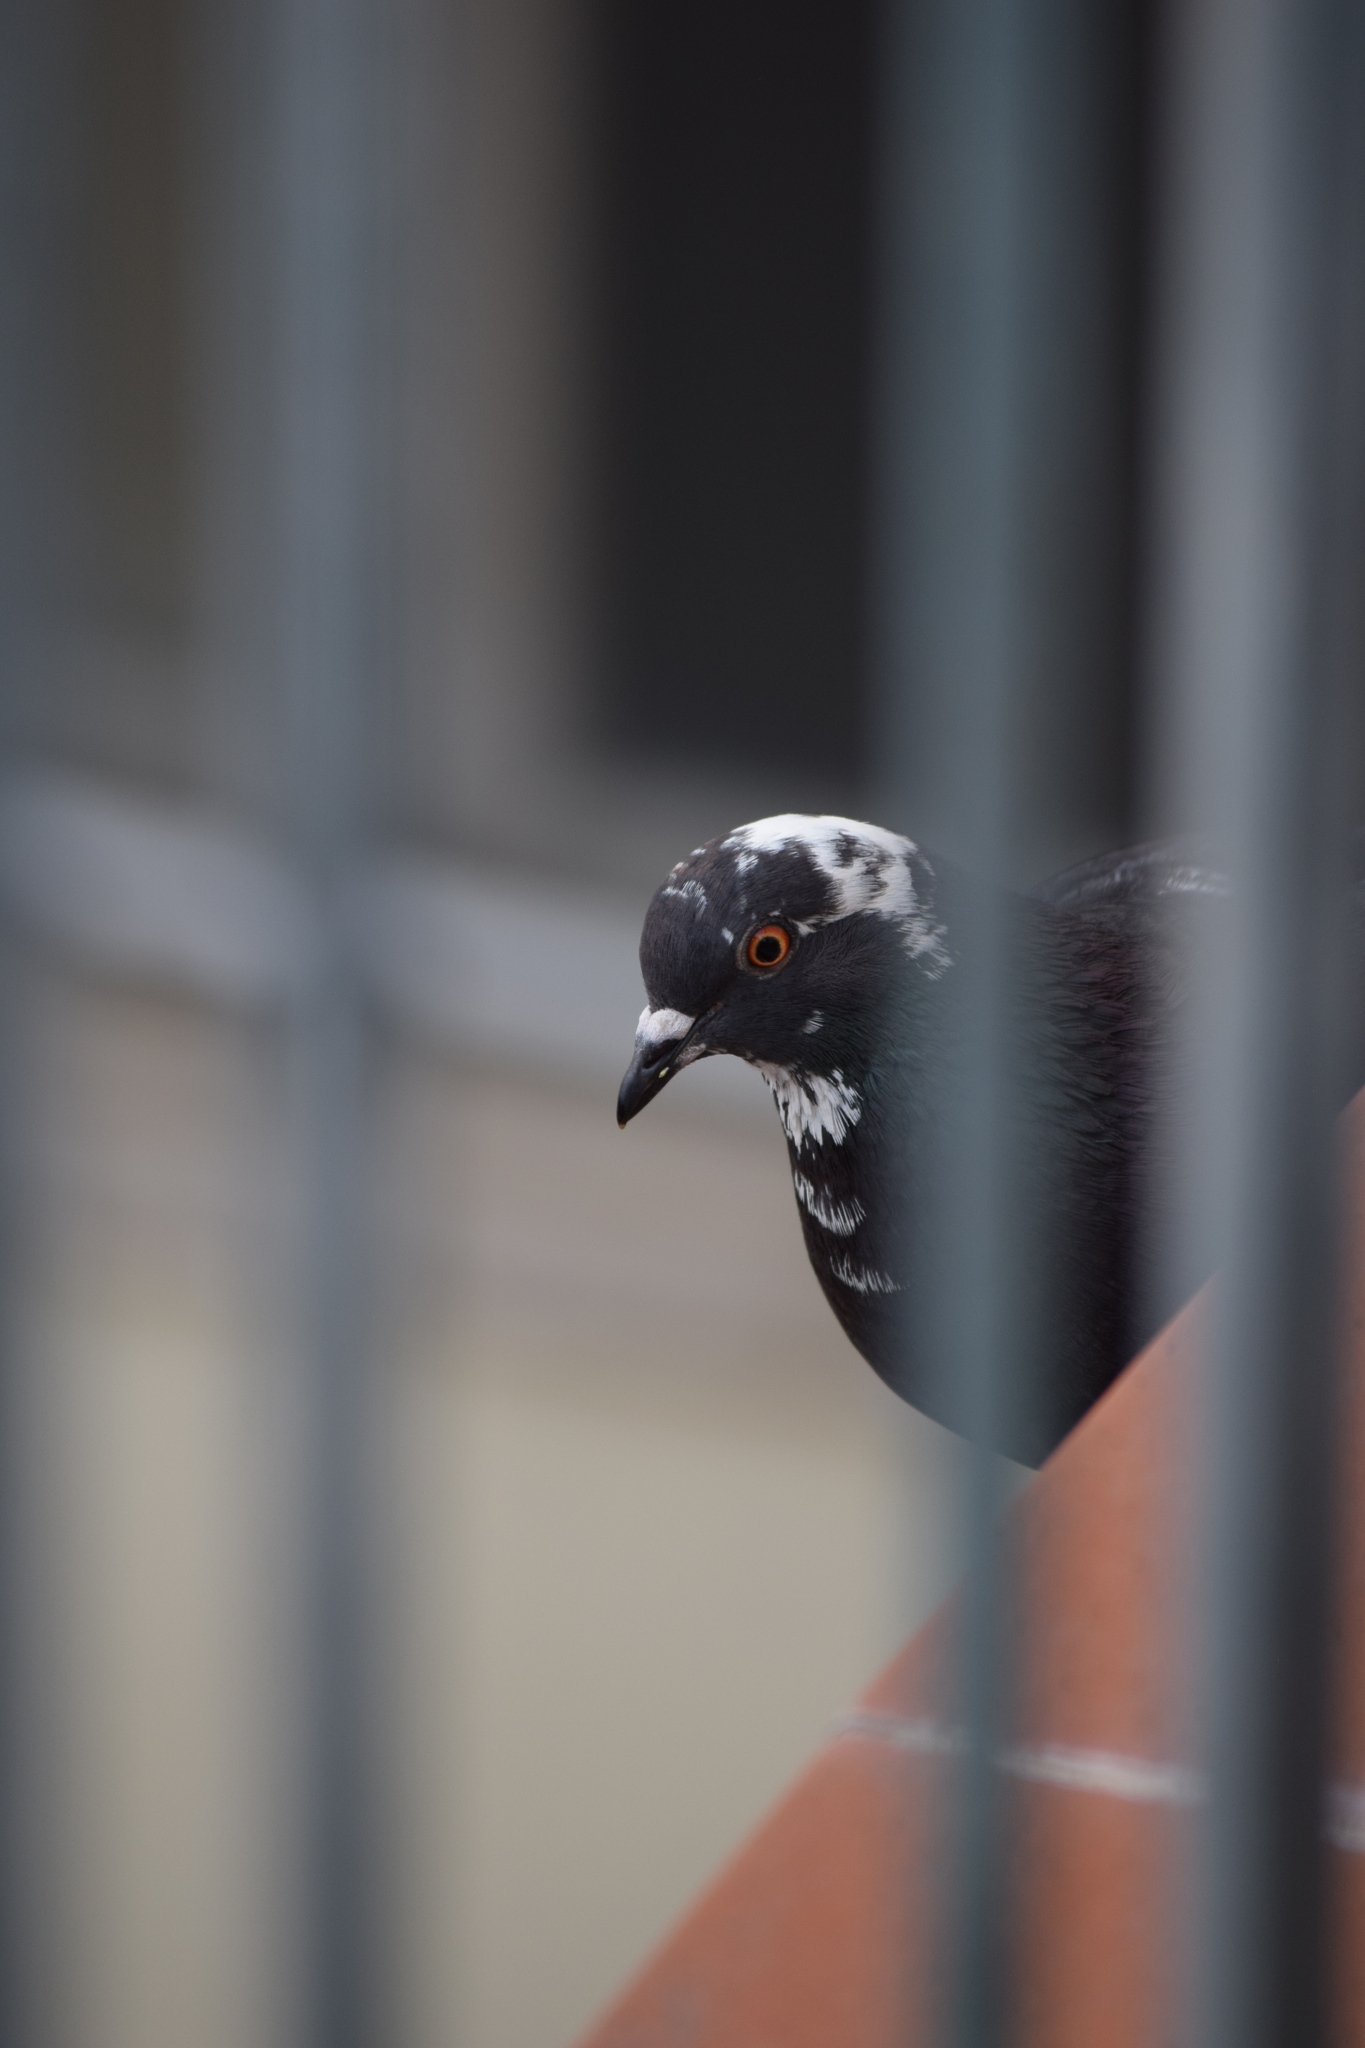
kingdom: Animalia
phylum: Chordata
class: Aves
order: Columbiformes
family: Columbidae
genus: Columba
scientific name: Columba livia
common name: Rock pigeon
